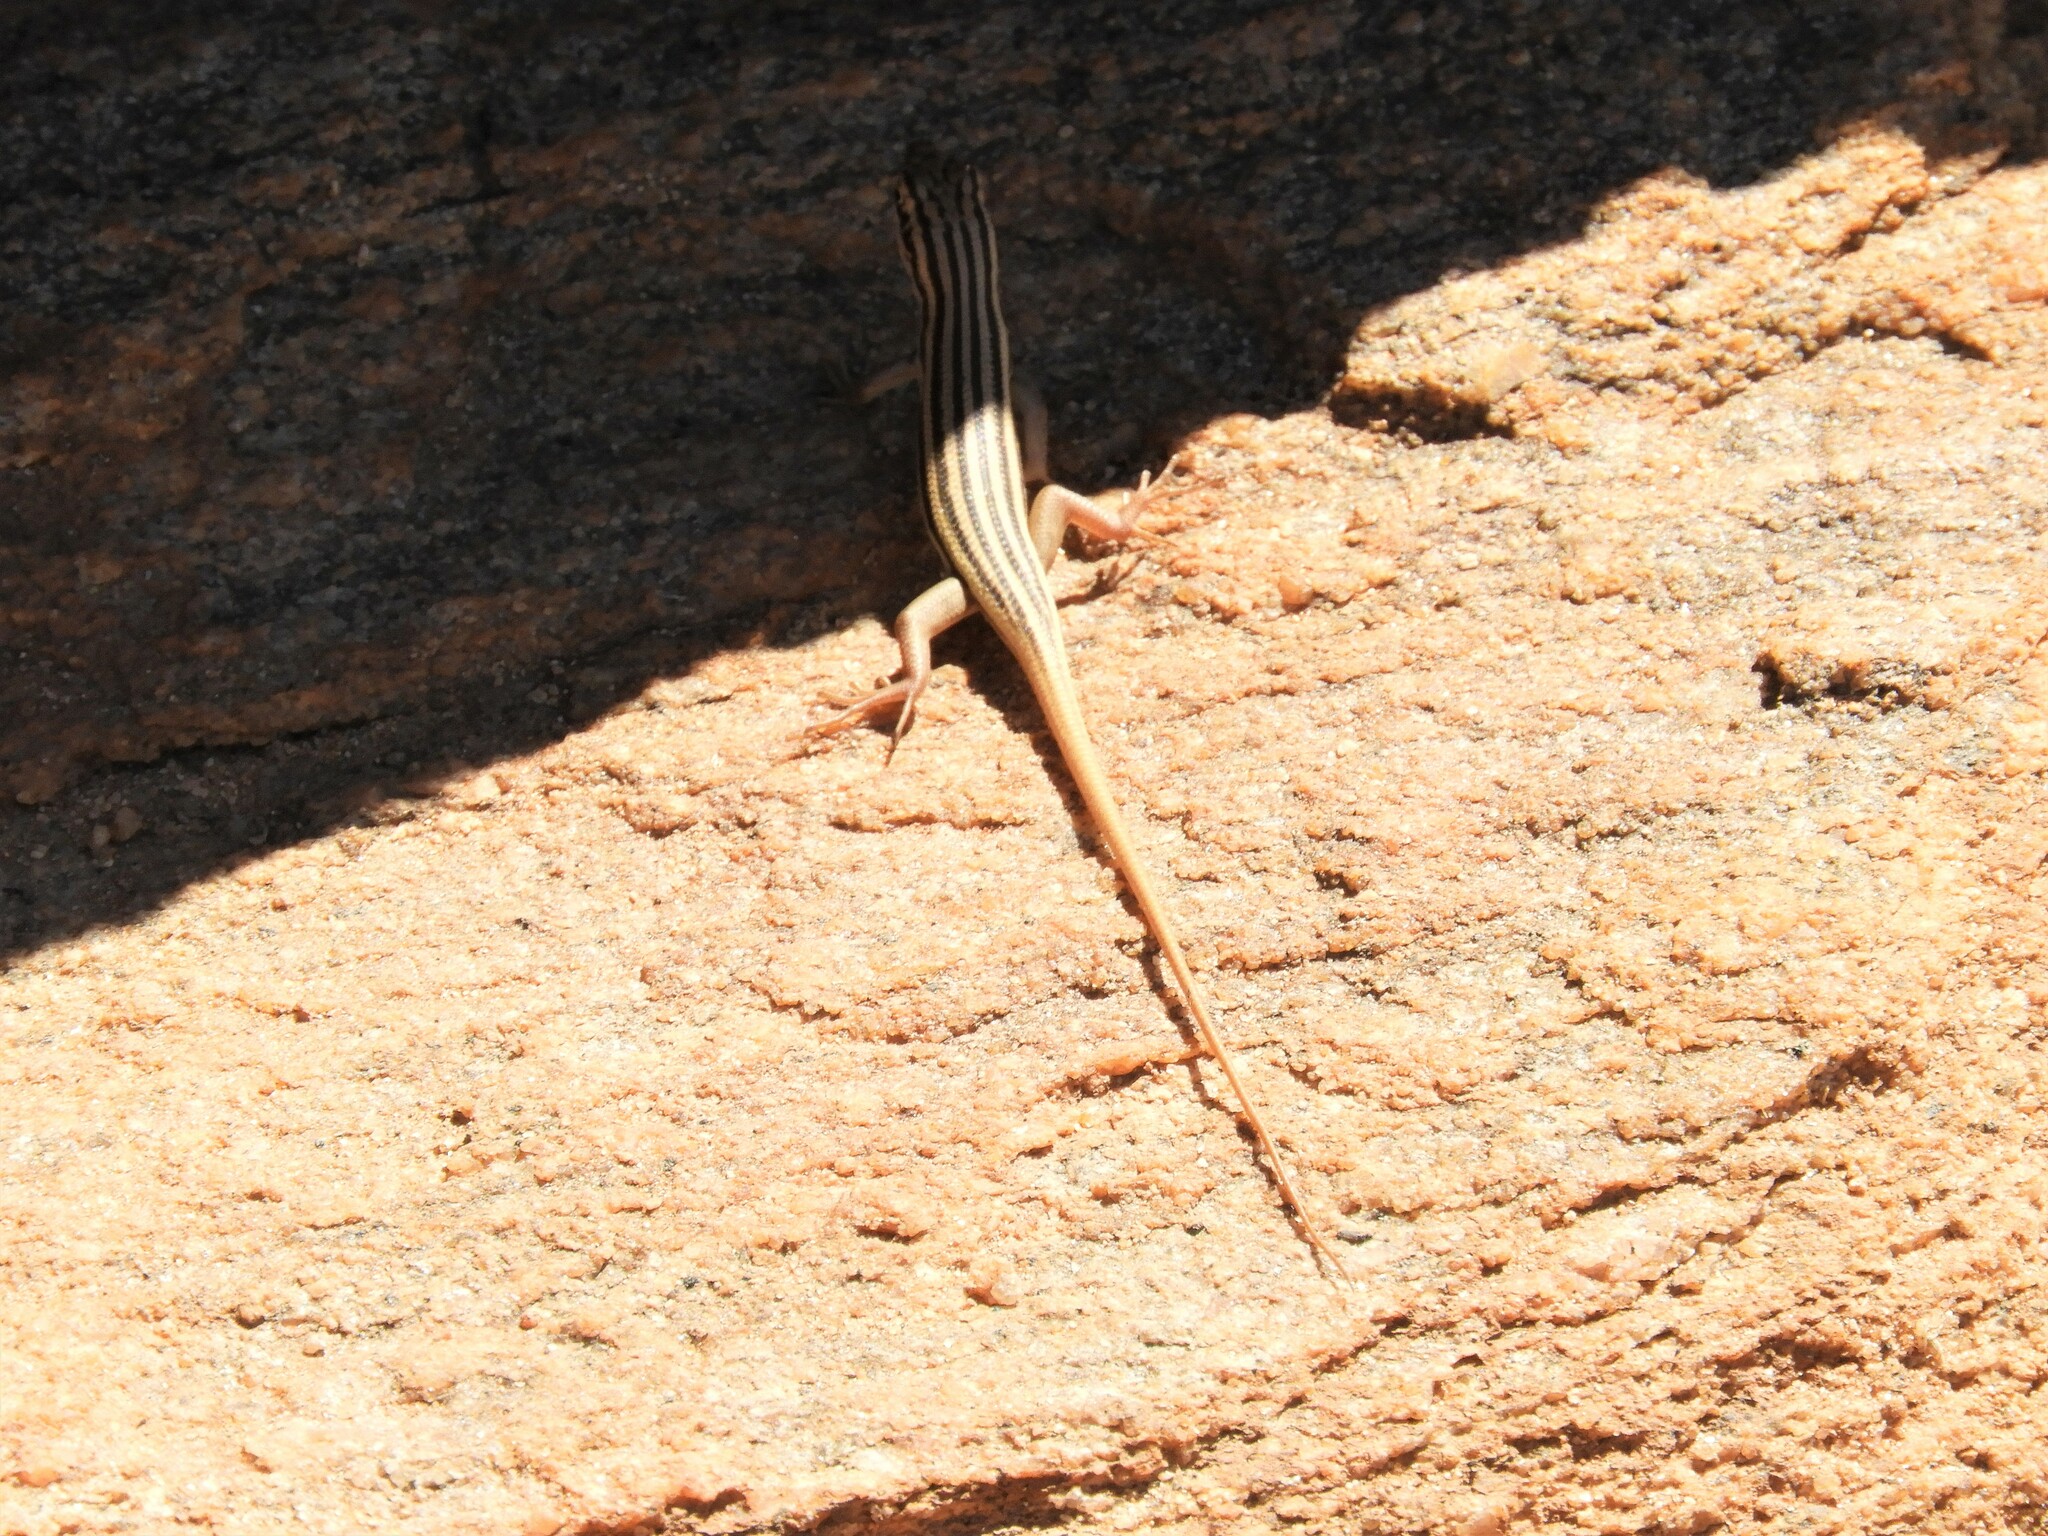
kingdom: Animalia
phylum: Chordata
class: Squamata
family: Scincidae
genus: Trachylepis
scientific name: Trachylepis sulcata
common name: Western rock skink
